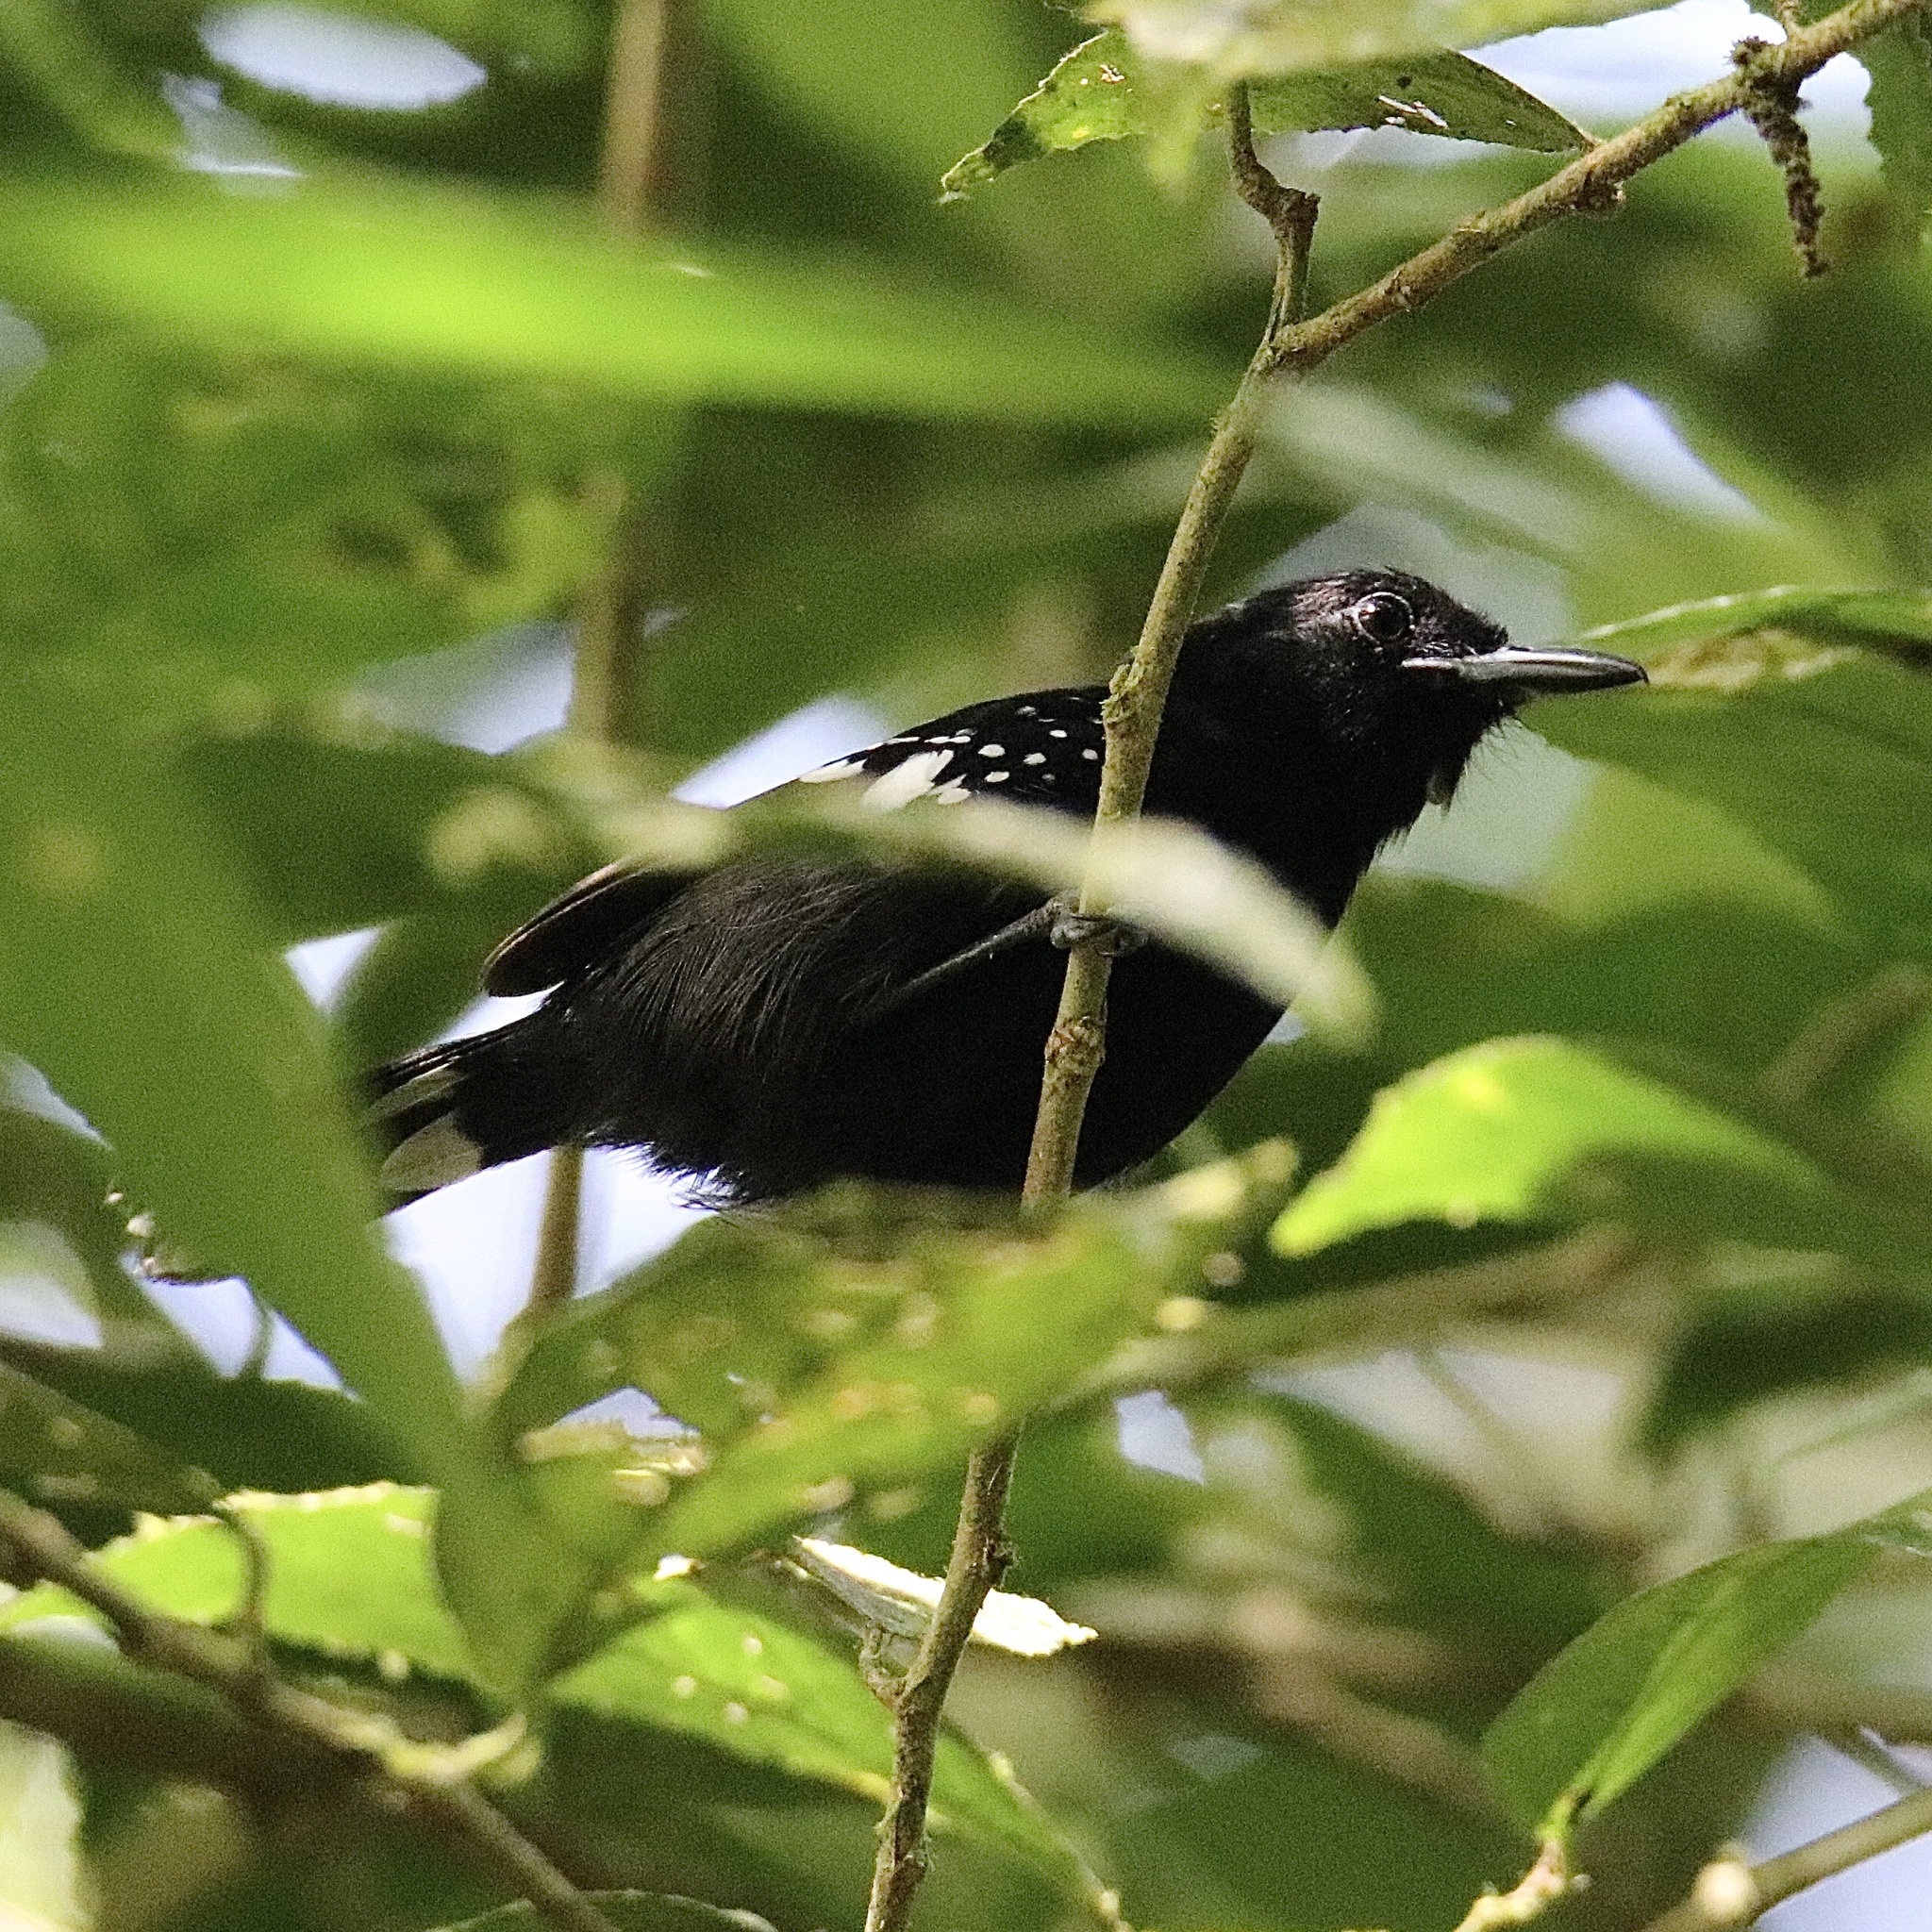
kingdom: Animalia
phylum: Chordata
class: Aves
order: Passeriformes
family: Thamnophilidae
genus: Microrhopias
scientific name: Microrhopias quixensis
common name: Dot-winged antwren
